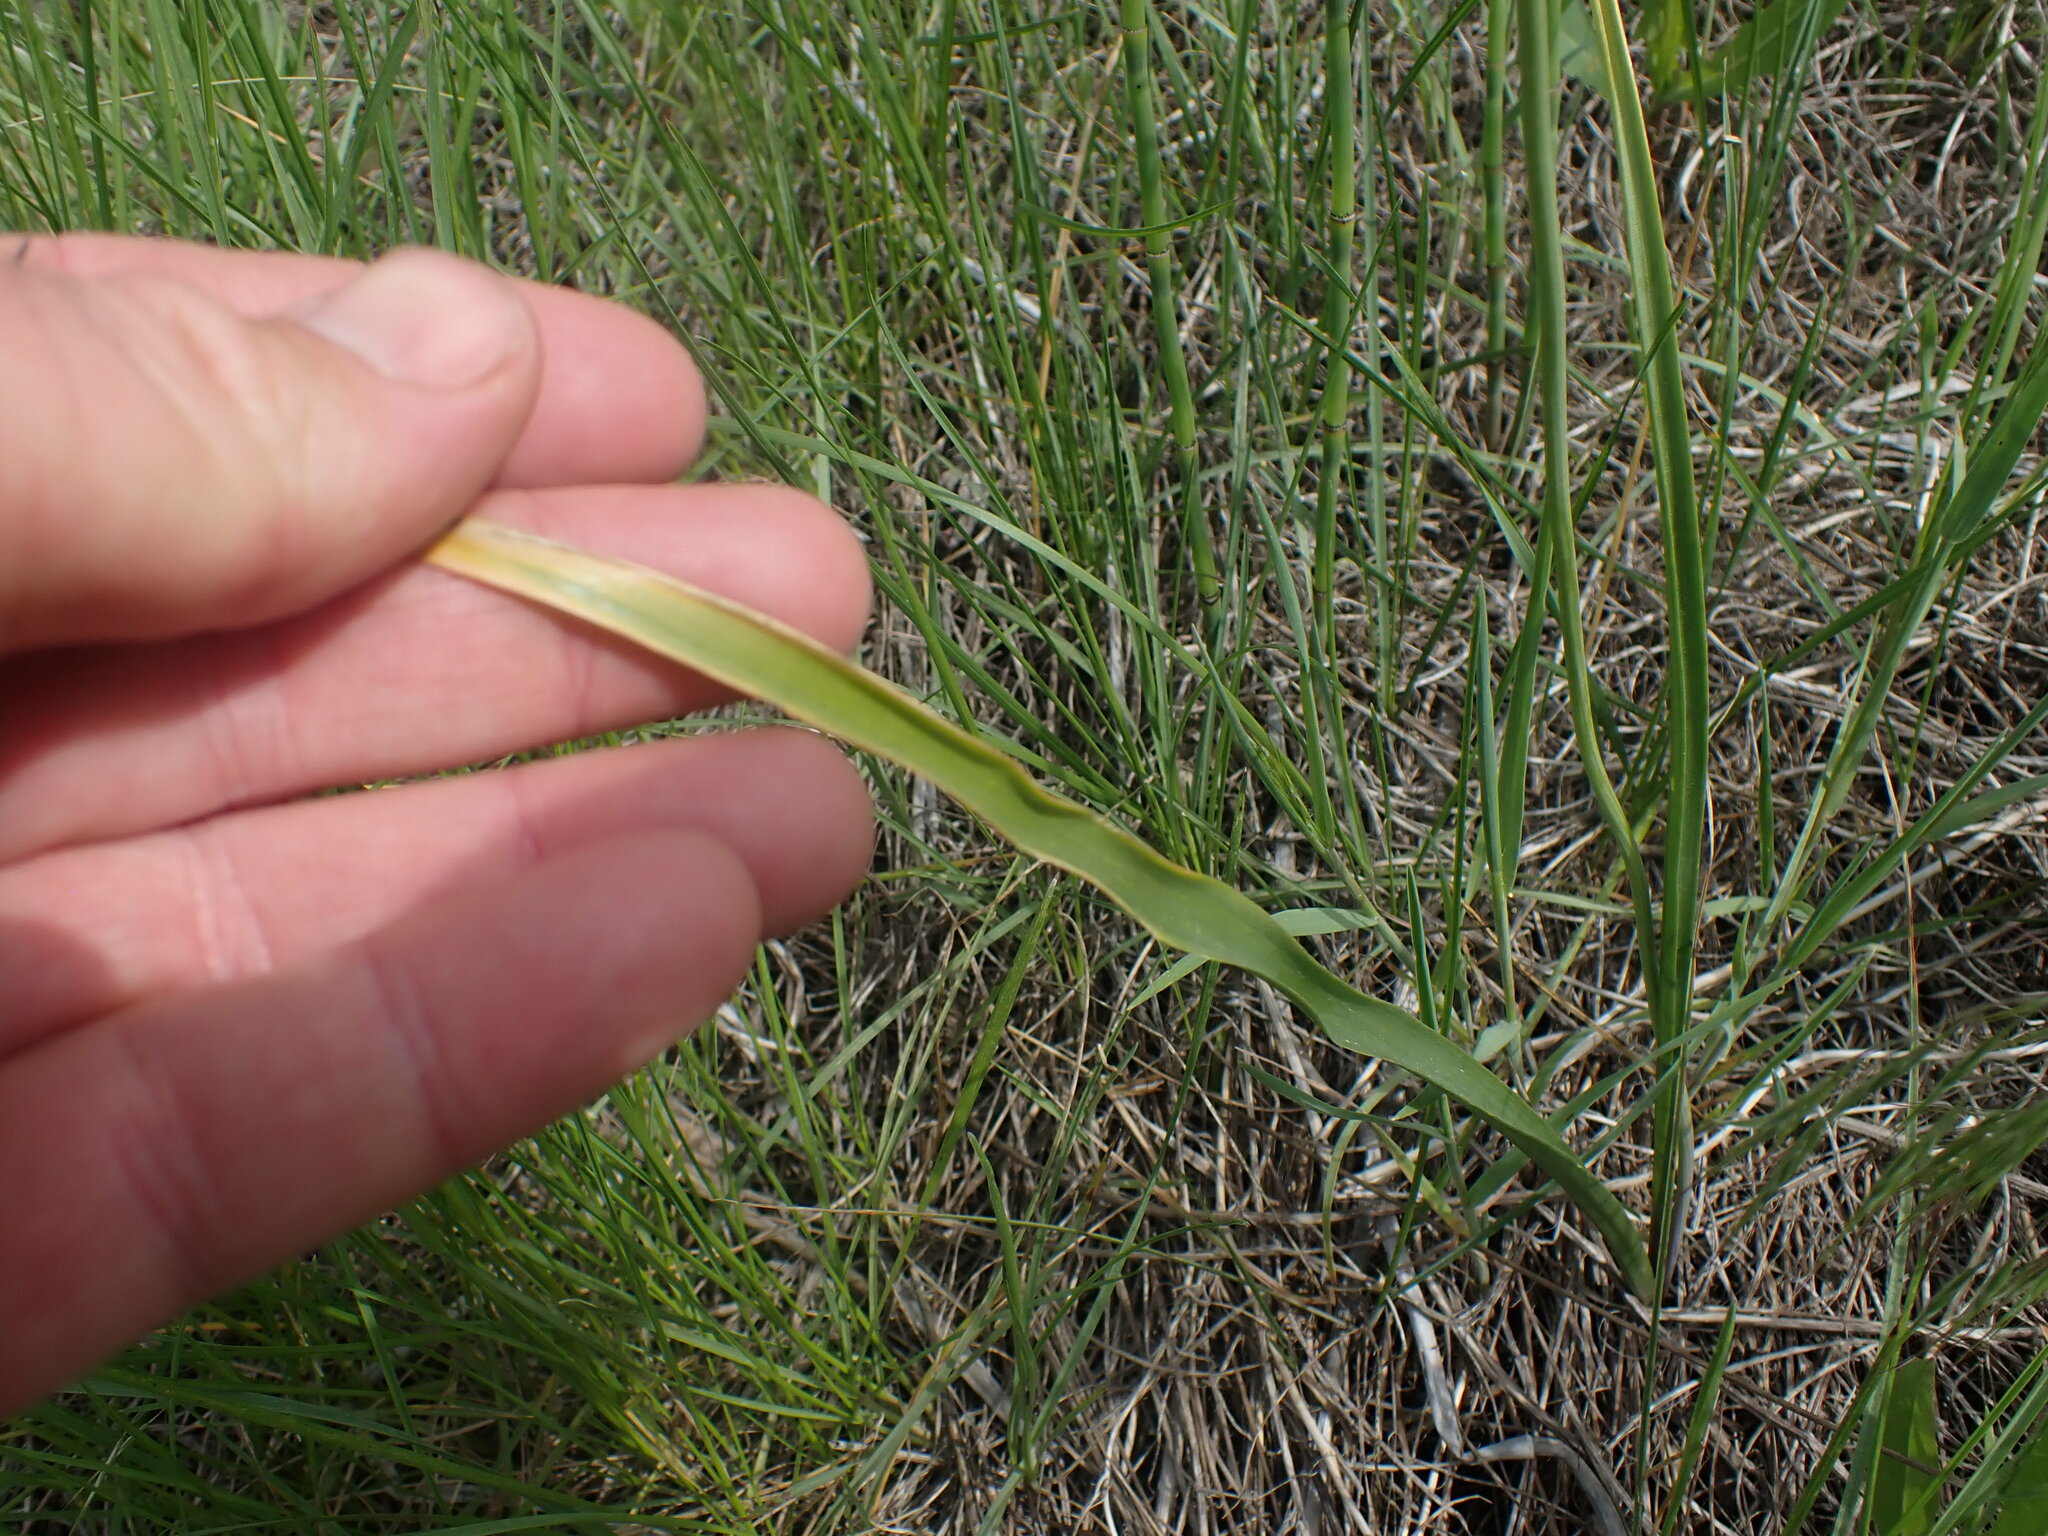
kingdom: Plantae
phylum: Tracheophyta
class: Liliopsida
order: Asparagales
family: Asparagaceae
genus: Triteleia
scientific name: Triteleia grandiflora
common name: Wild hyacinth
